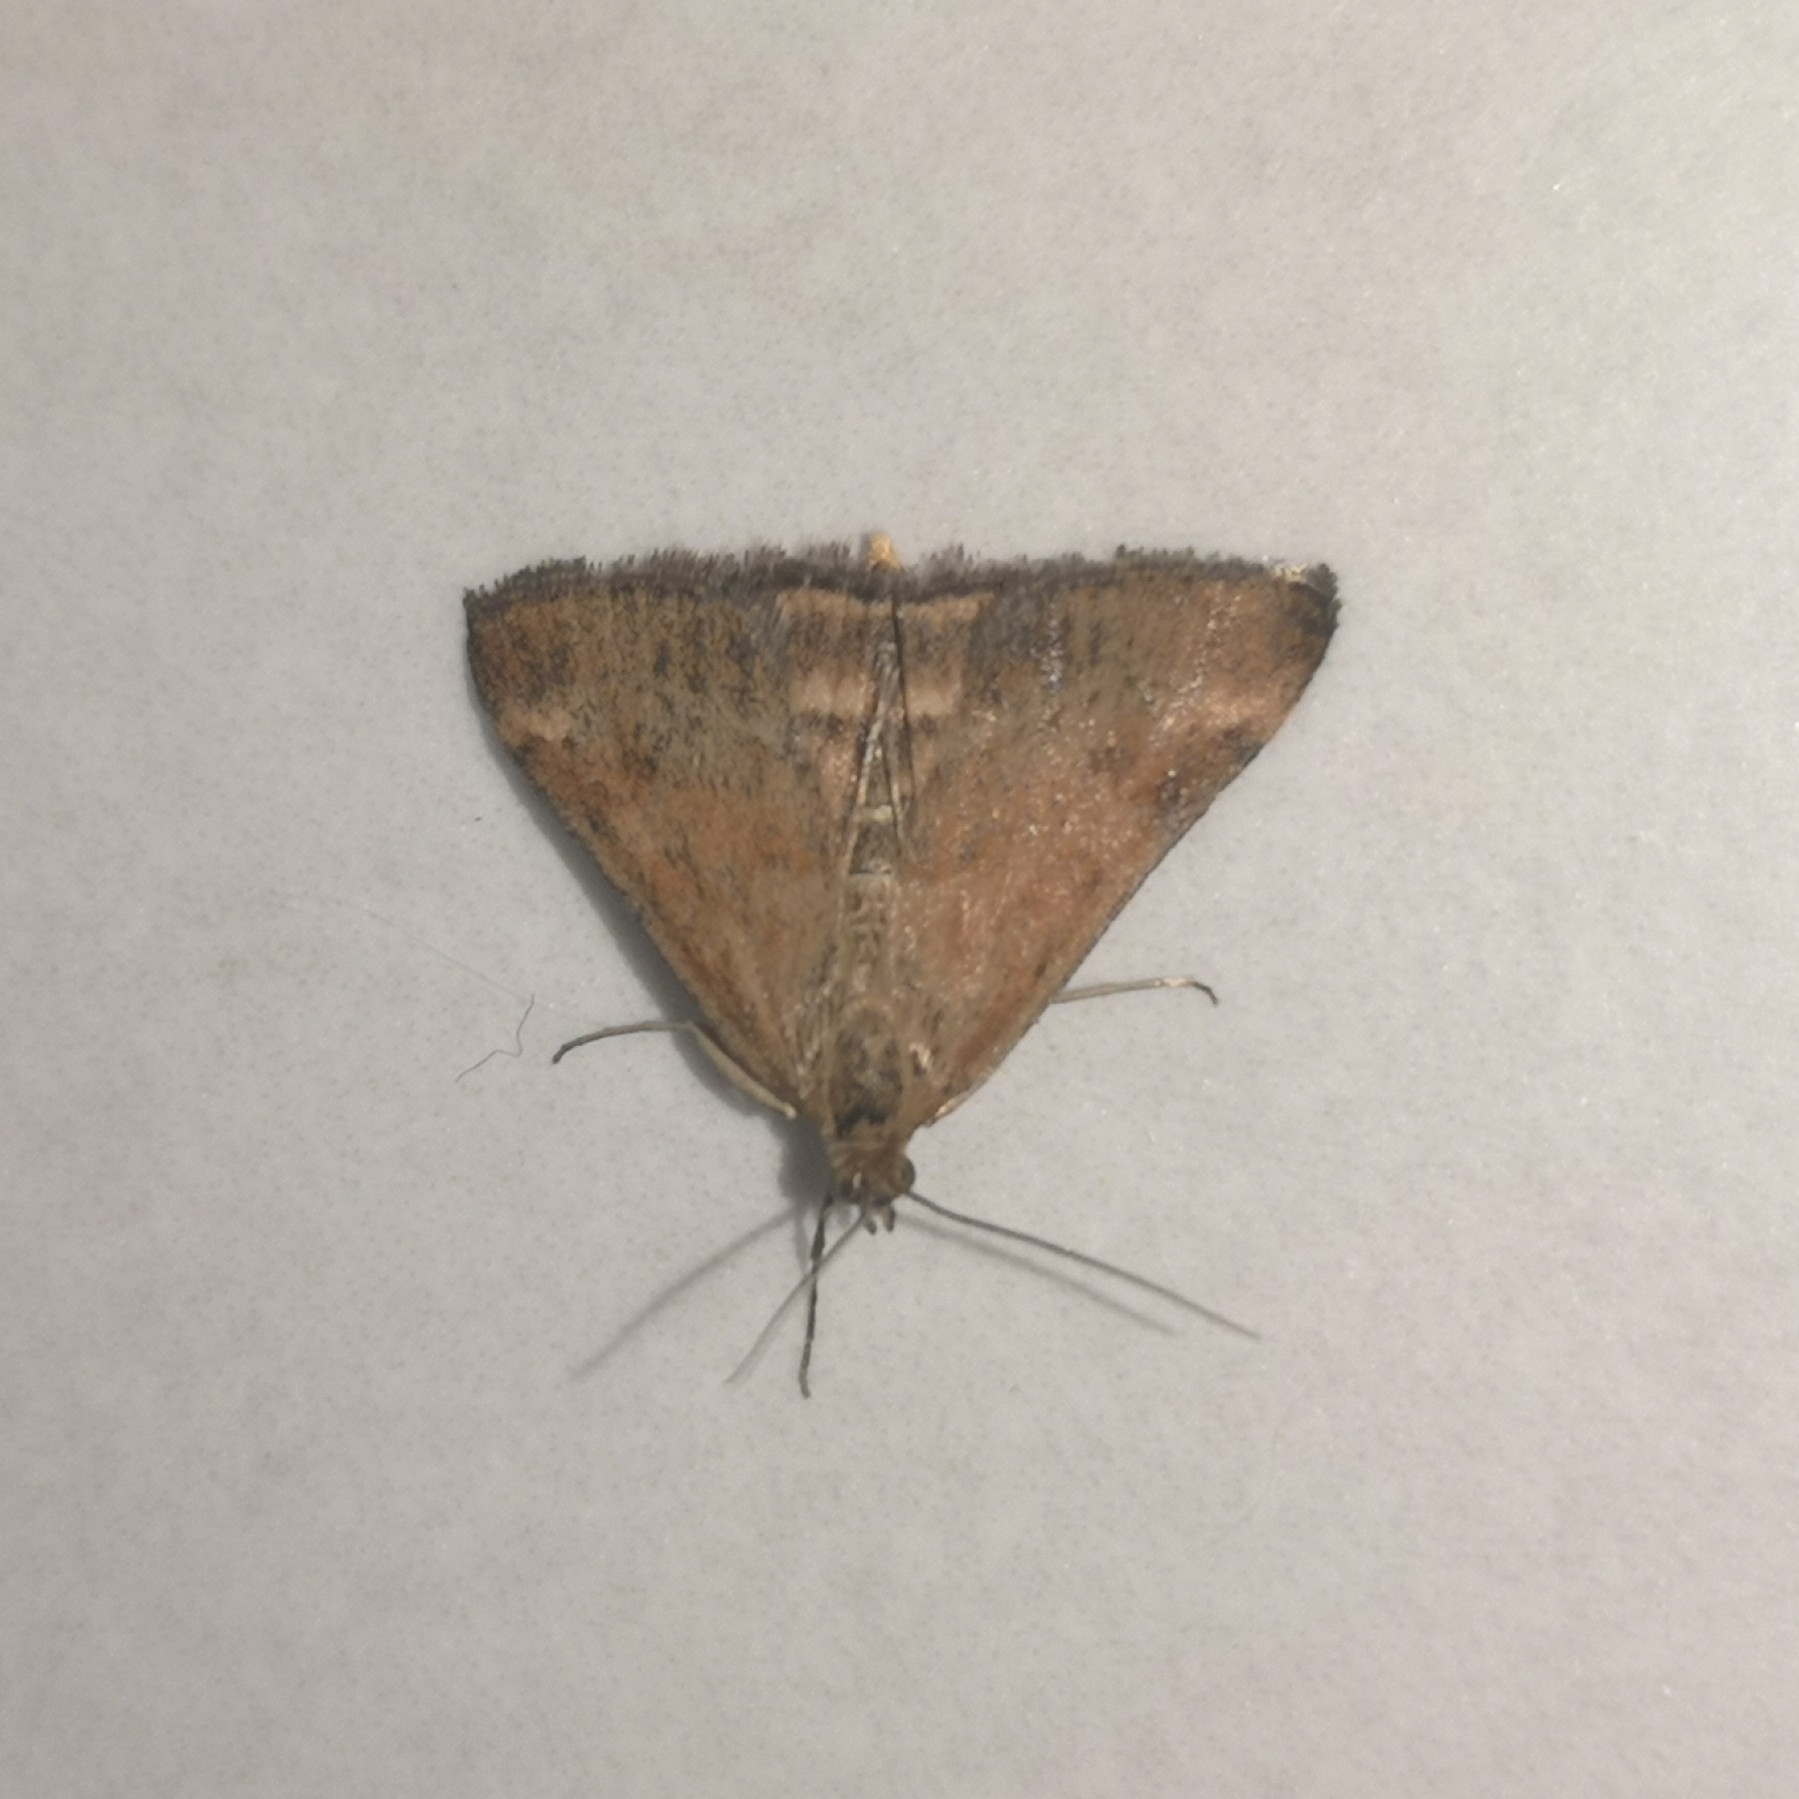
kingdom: Animalia
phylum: Arthropoda
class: Insecta
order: Lepidoptera
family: Crambidae
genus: Pyrausta
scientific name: Pyrausta despicata
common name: Straw-barred pearl
